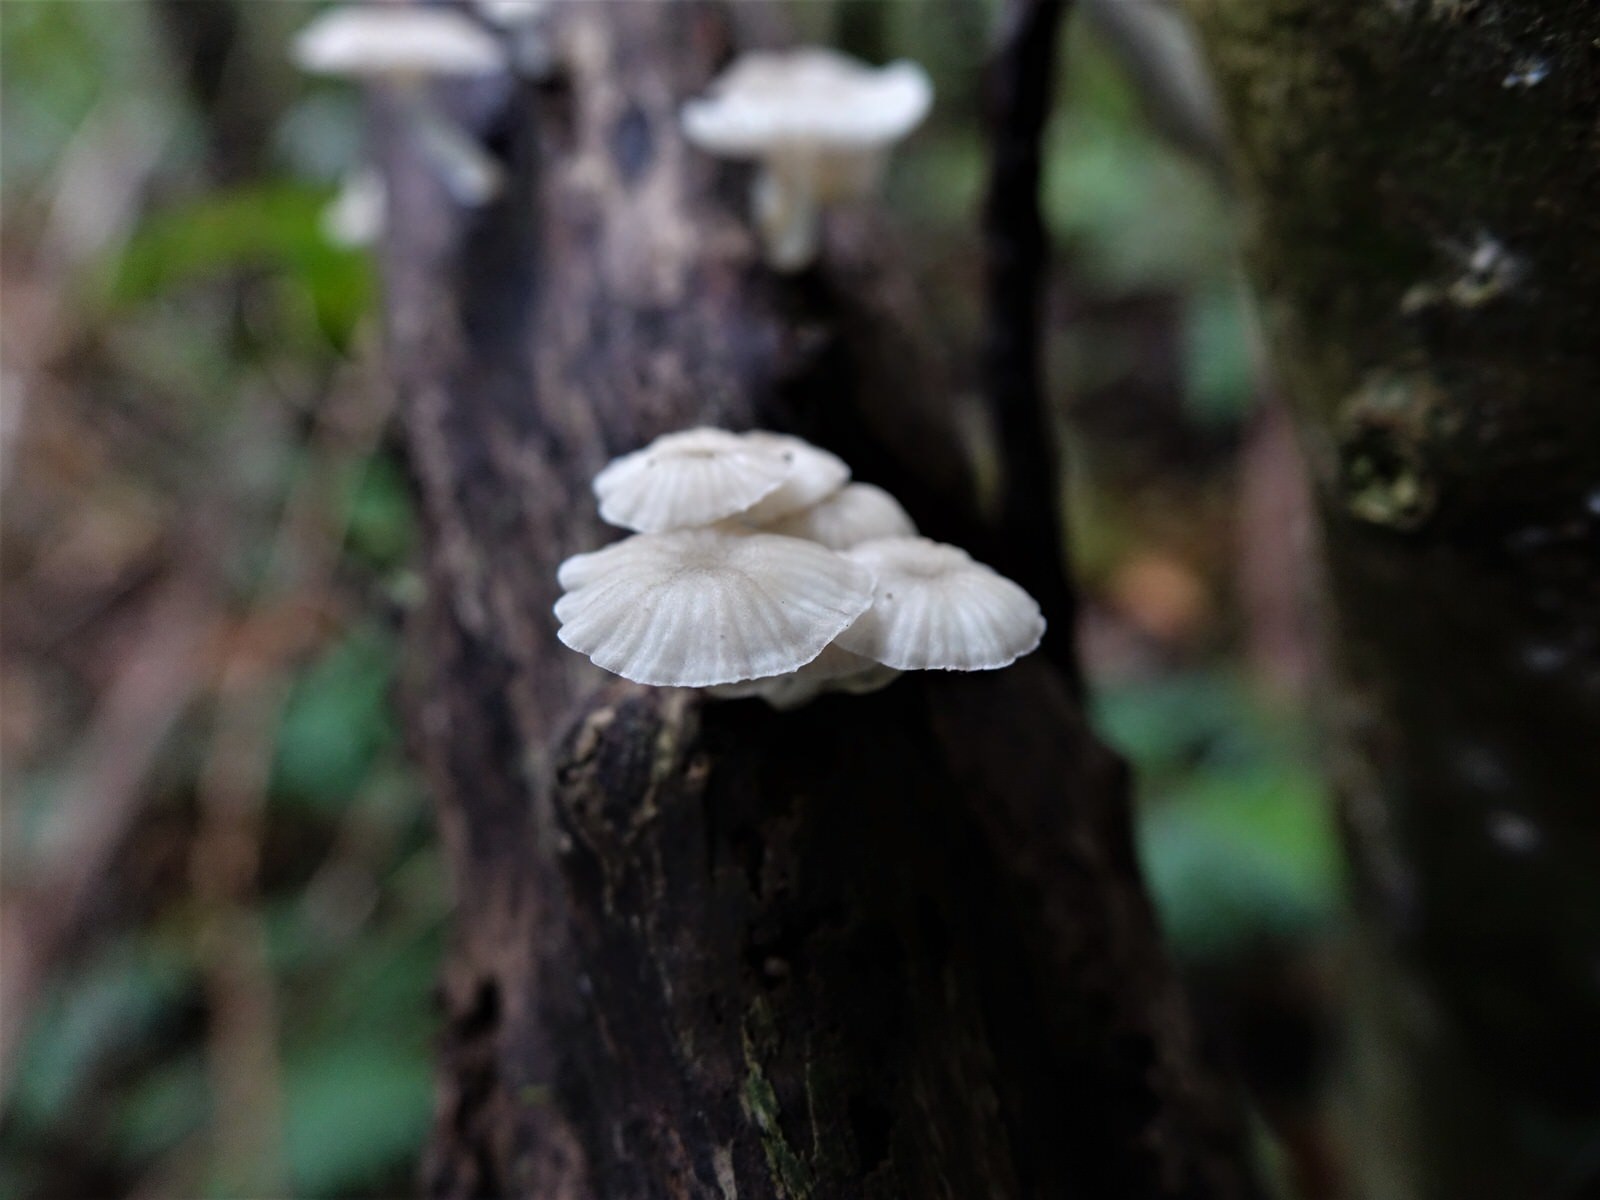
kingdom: Fungi
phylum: Basidiomycota
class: Agaricomycetes
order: Agaricales
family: Mycenaceae
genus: Roridomyces
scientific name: Roridomyces austrororidus
